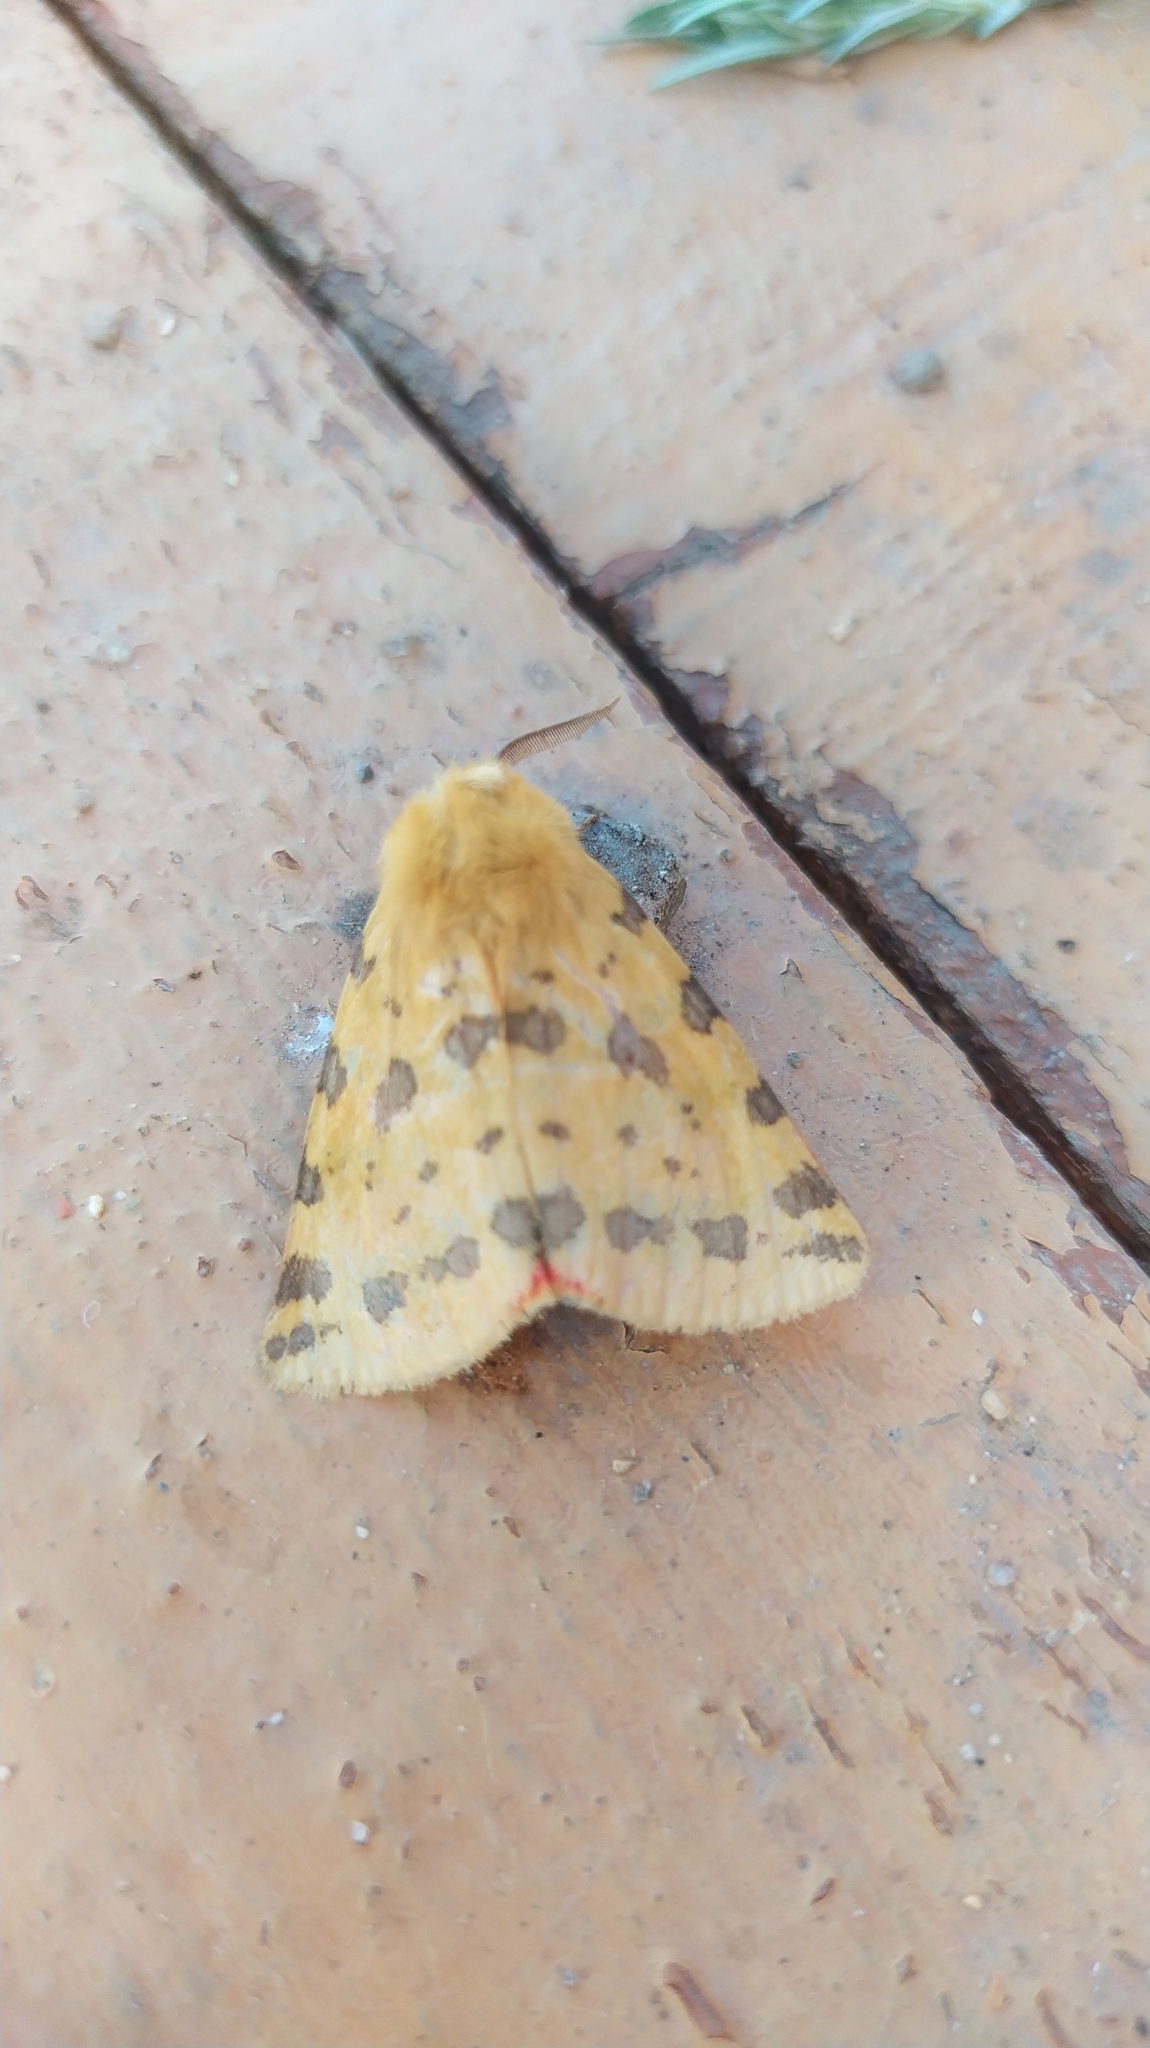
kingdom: Animalia
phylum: Arthropoda
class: Insecta
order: Lepidoptera
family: Erebidae
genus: Rhyparia
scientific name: Rhyparia purpurata
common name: Purple tiger
